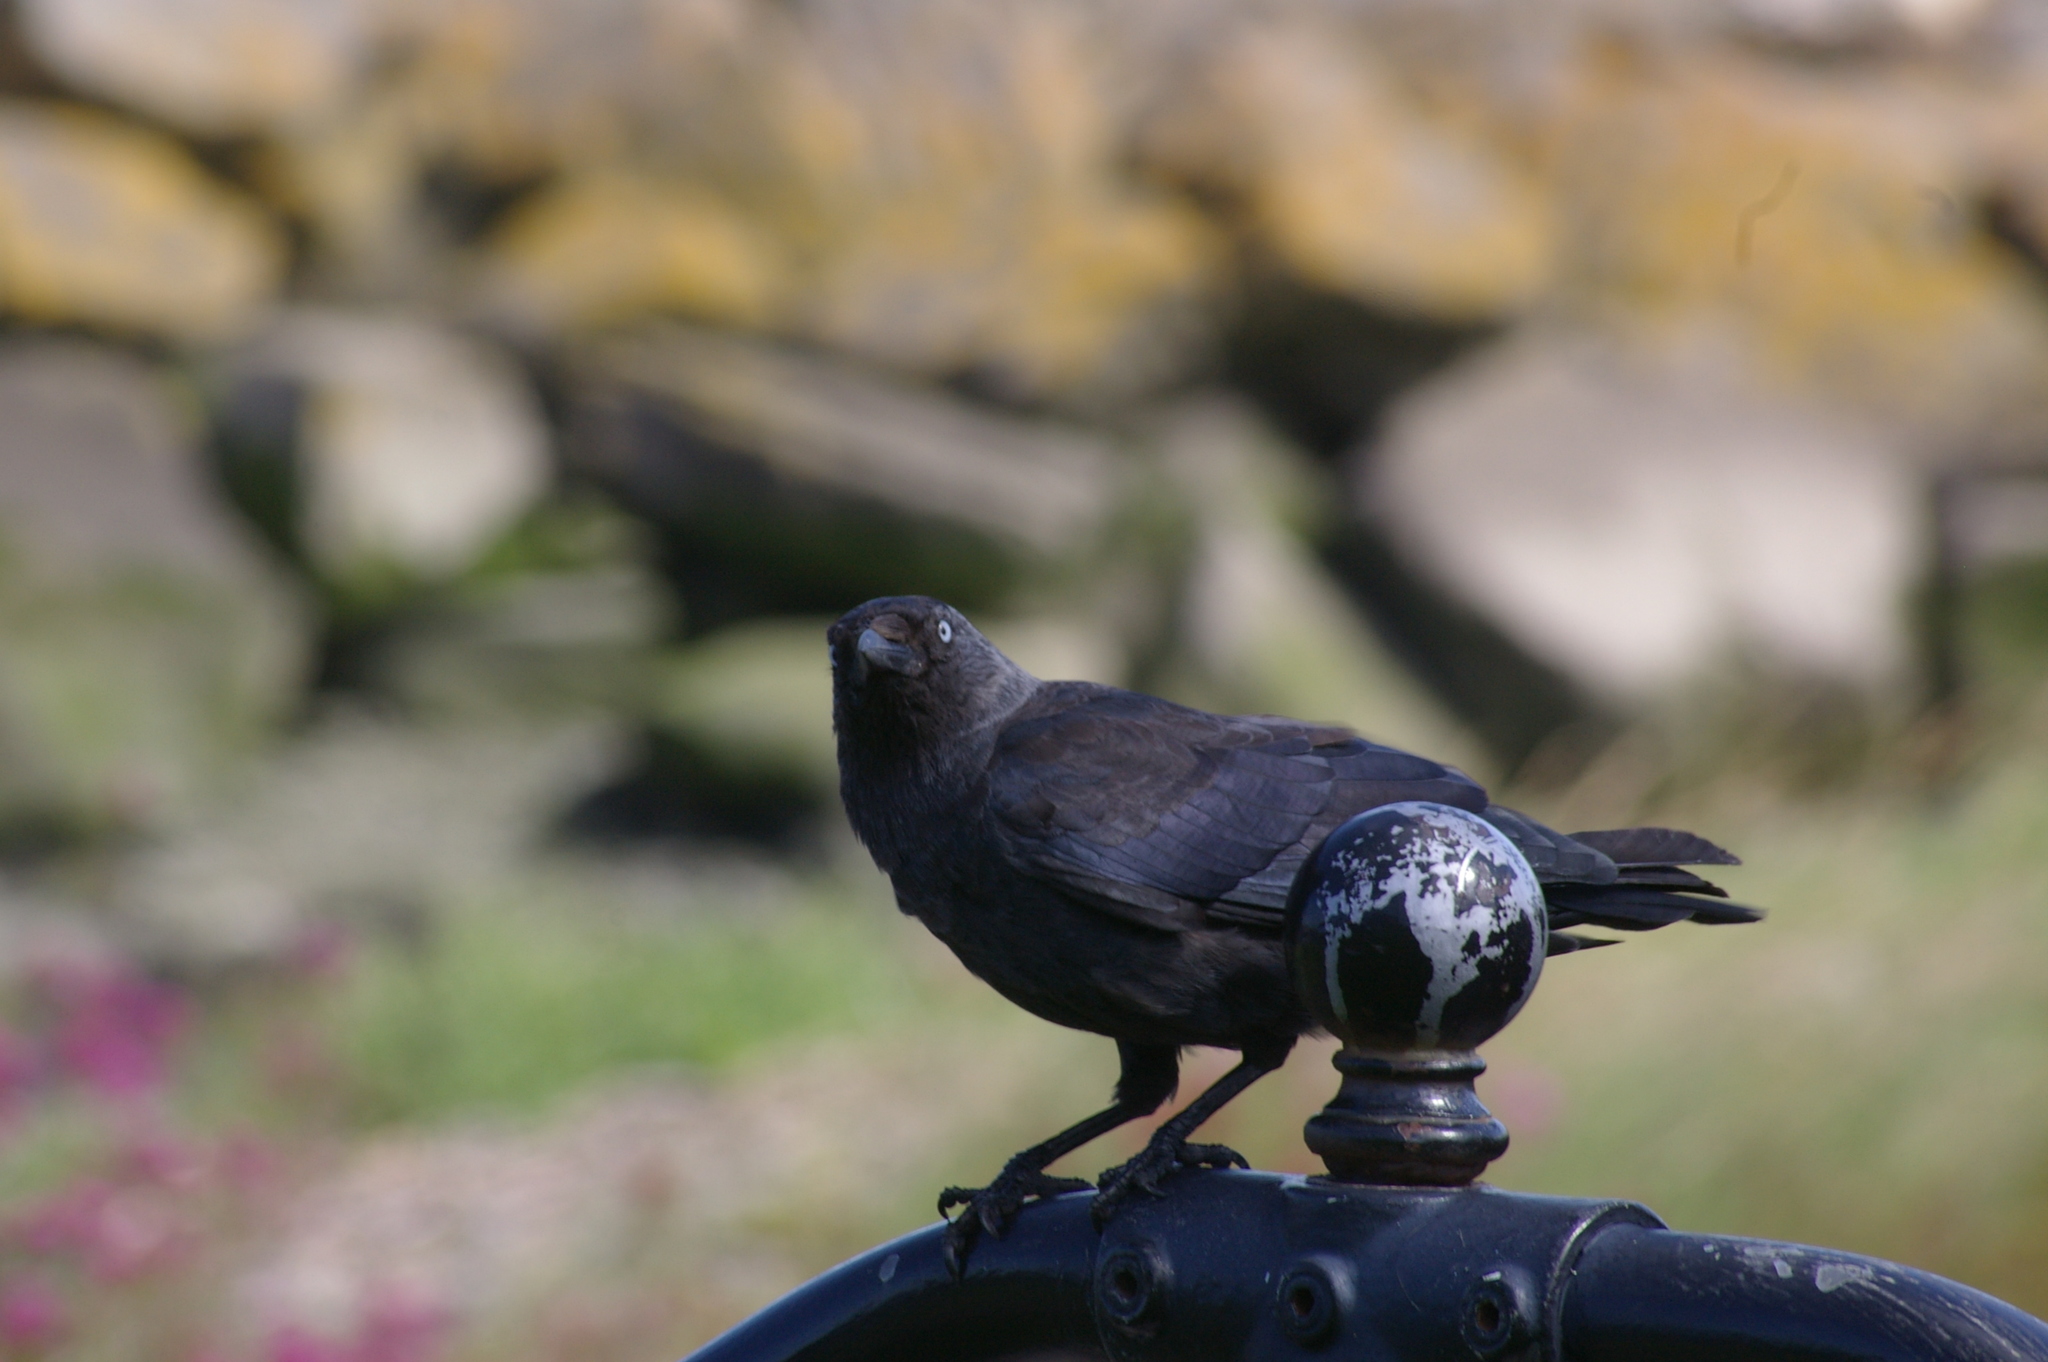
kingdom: Animalia
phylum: Chordata
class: Aves
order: Passeriformes
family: Corvidae
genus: Coloeus
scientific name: Coloeus monedula
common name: Western jackdaw
